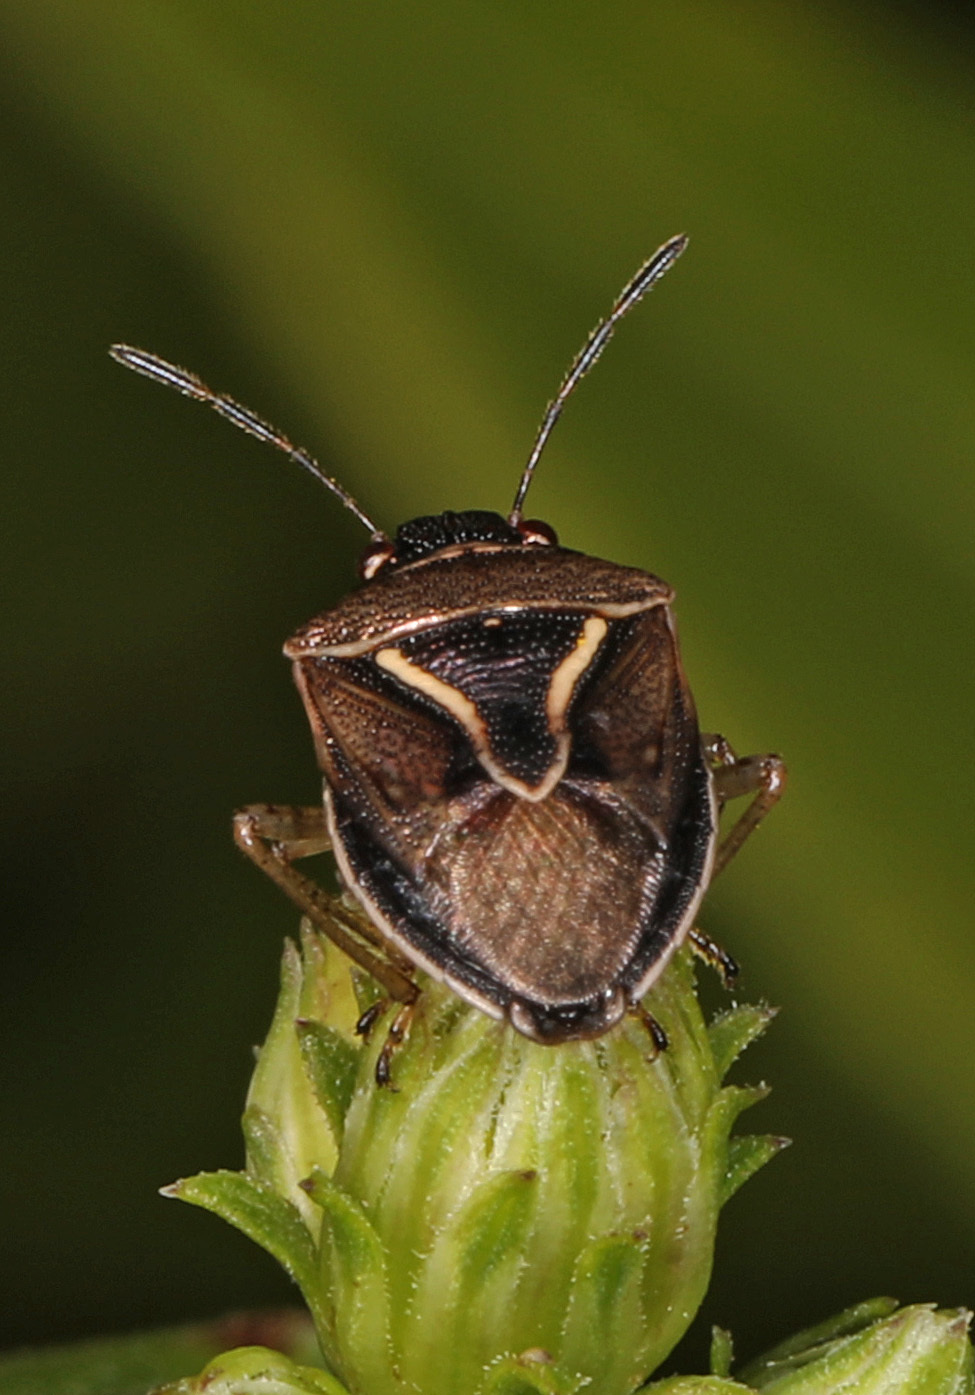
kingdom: Animalia
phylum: Arthropoda
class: Insecta
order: Hemiptera
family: Pentatomidae
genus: Mormidea
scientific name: Mormidea lugens
